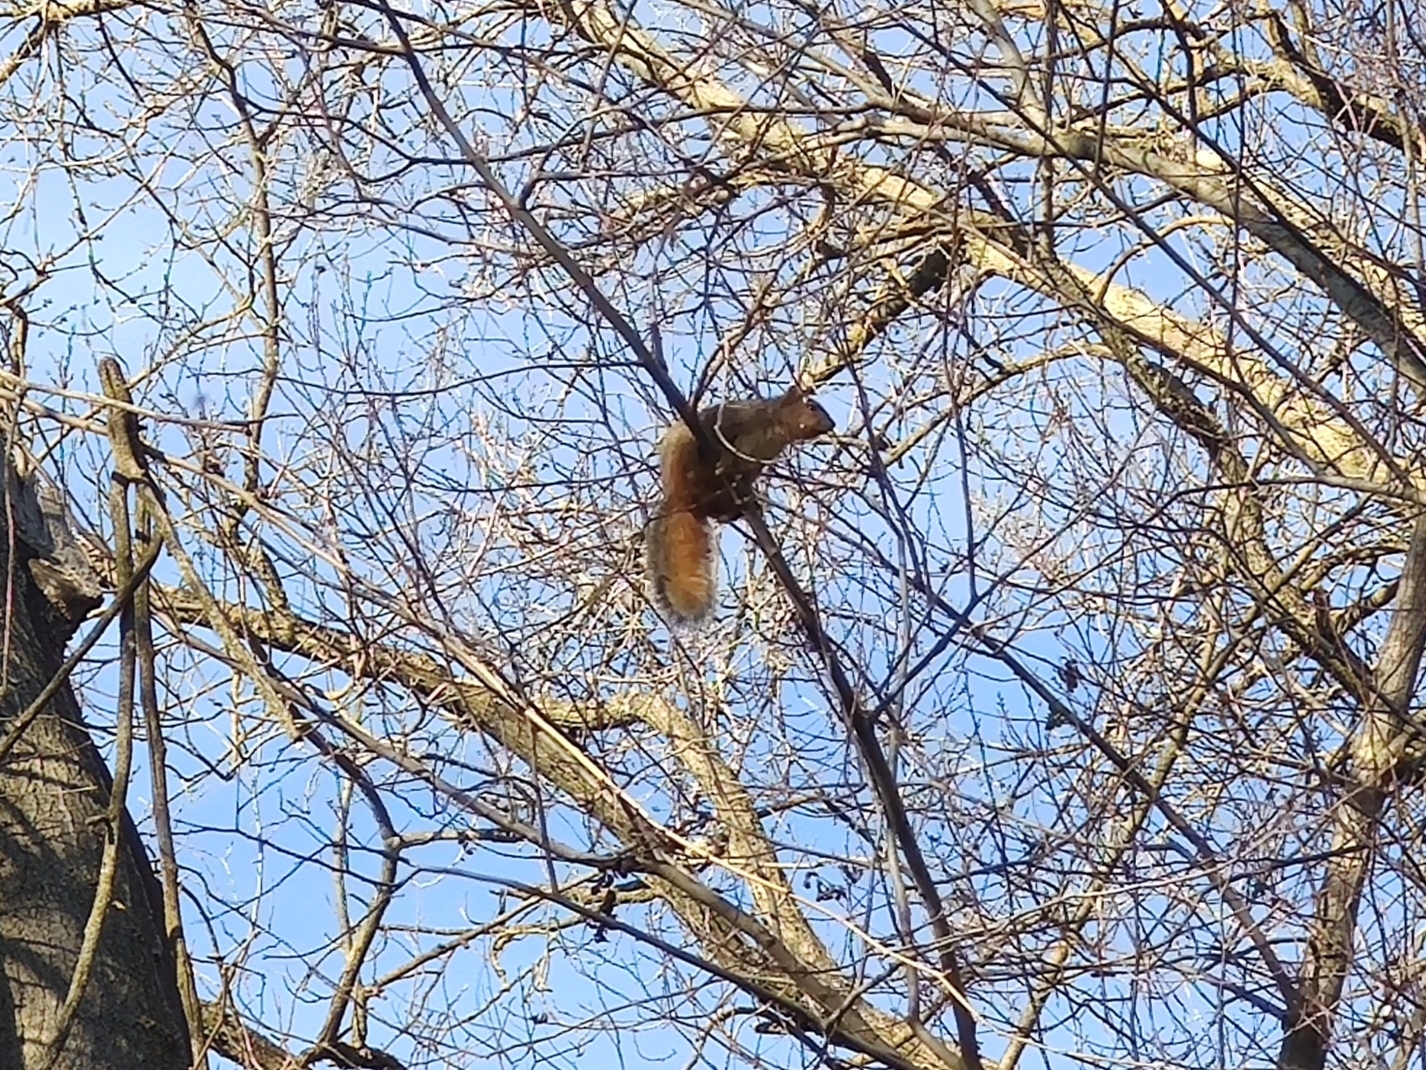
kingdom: Animalia
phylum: Chordata
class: Mammalia
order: Rodentia
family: Sciuridae
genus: Sciurus
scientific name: Sciurus niger
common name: Fox squirrel
